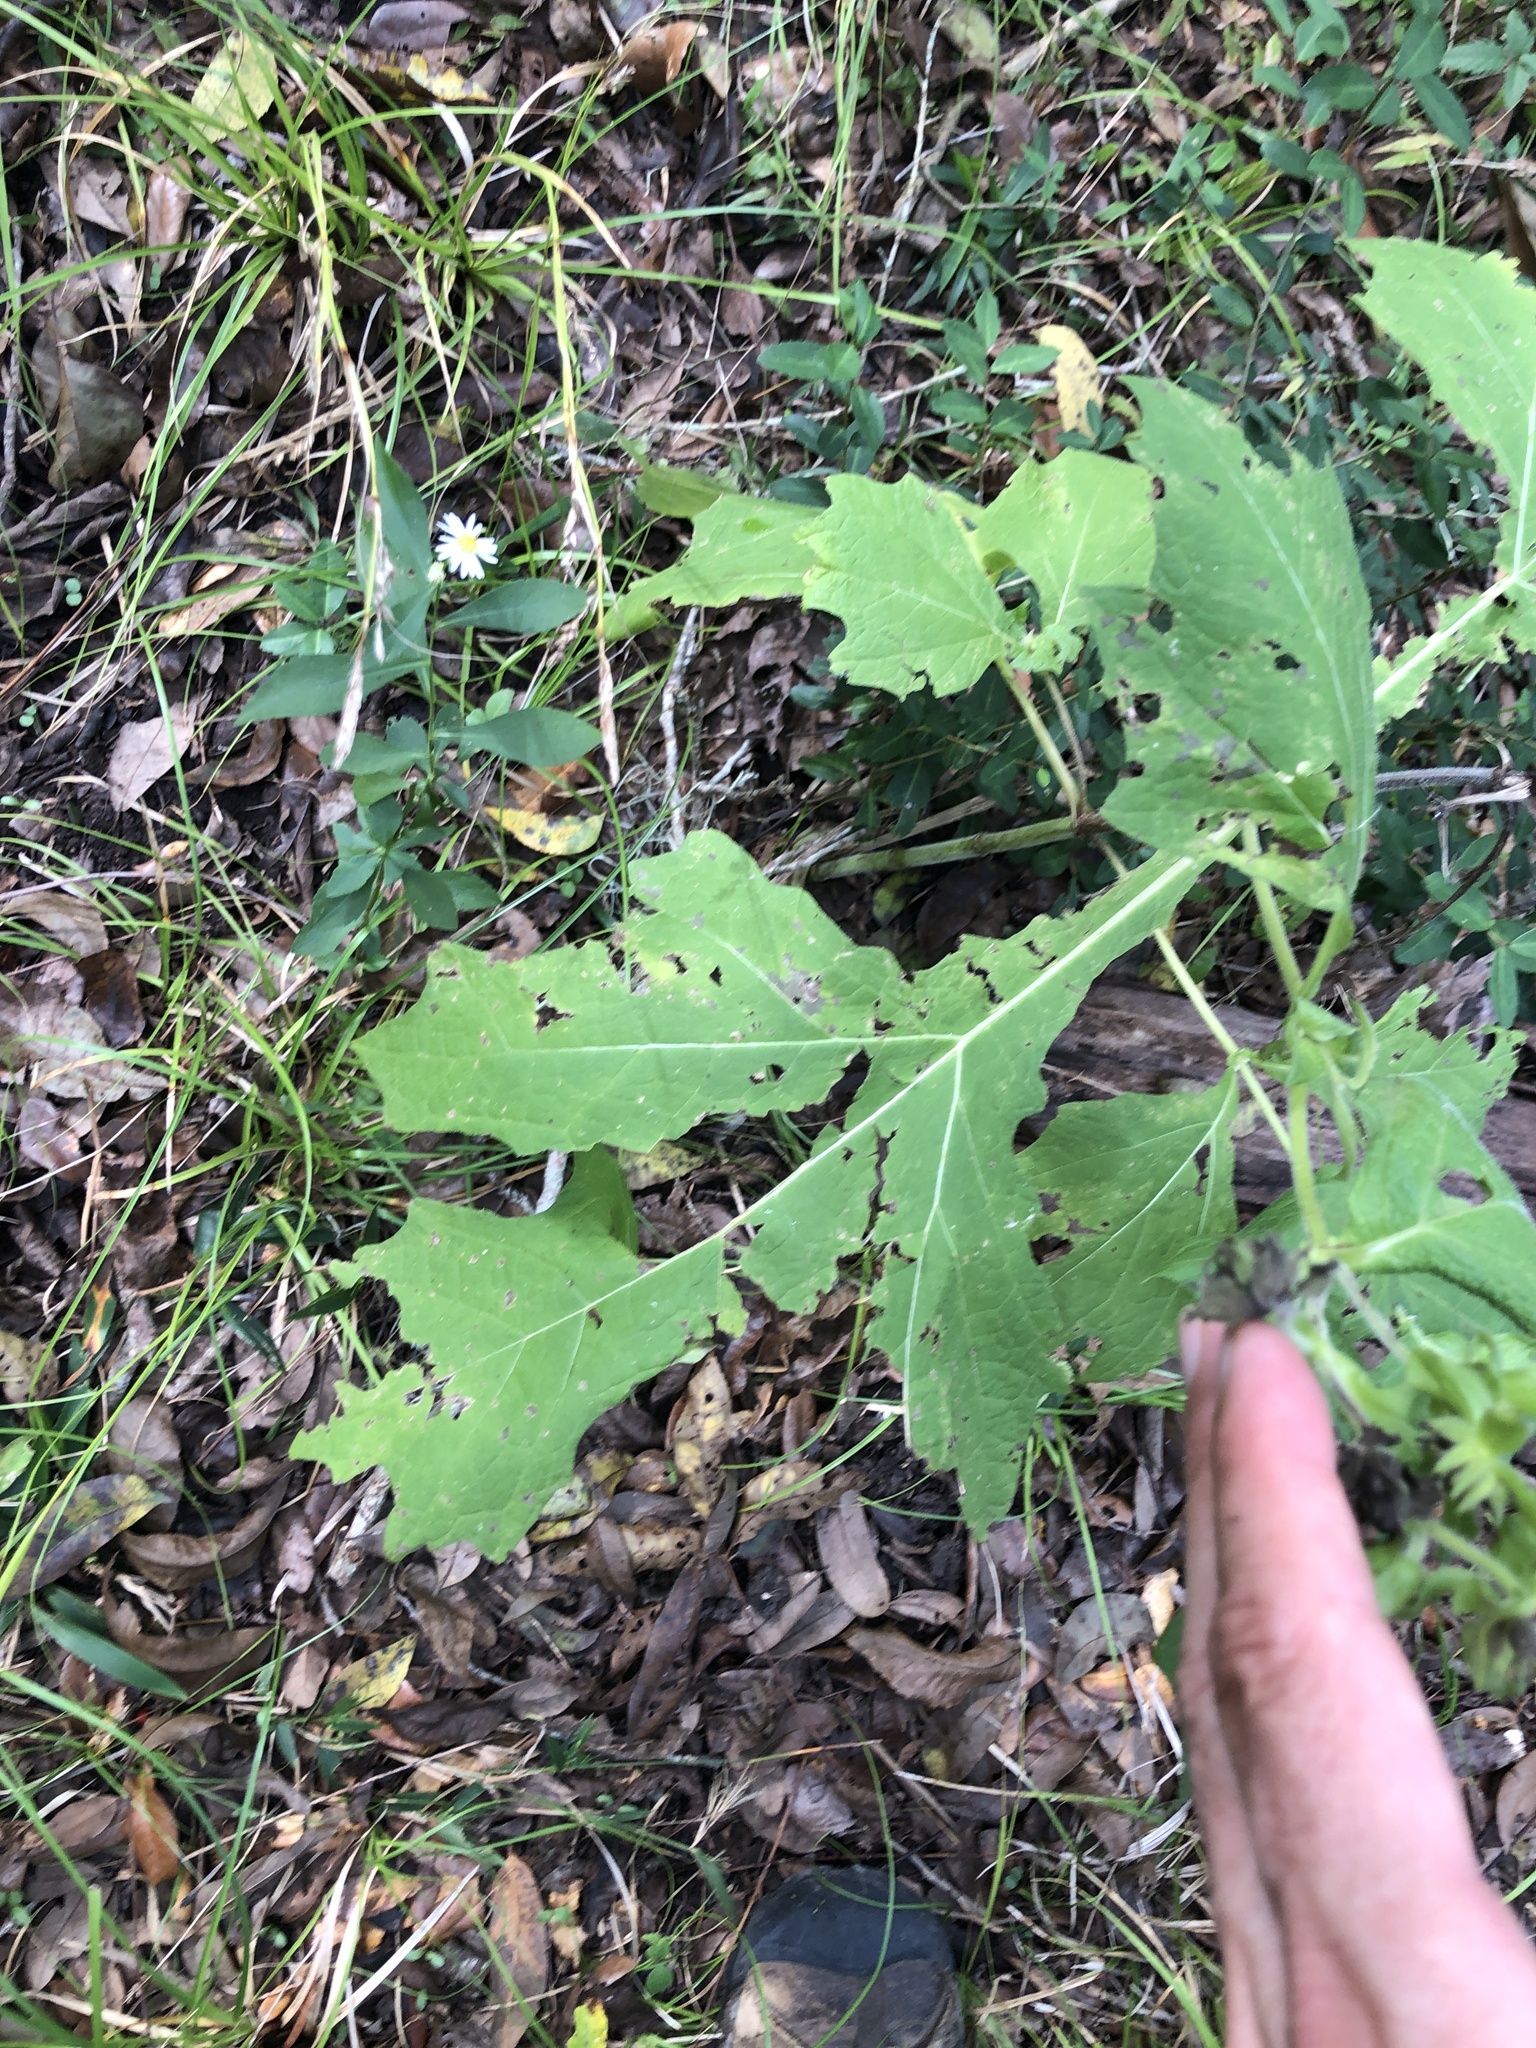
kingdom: Plantae
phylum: Tracheophyta
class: Magnoliopsida
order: Asterales
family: Asteraceae
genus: Smallanthus
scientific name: Smallanthus uvedalia
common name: Bear's-foot
